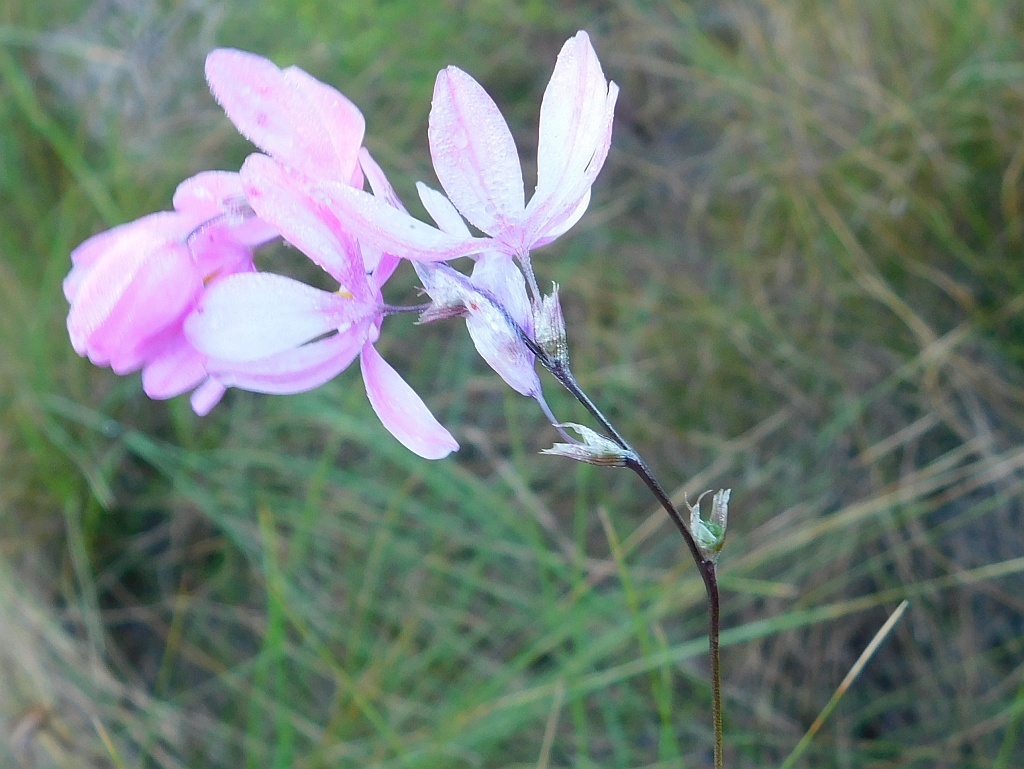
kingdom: Plantae
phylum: Tracheophyta
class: Liliopsida
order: Asparagales
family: Iridaceae
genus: Ixia
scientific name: Ixia micrandra
